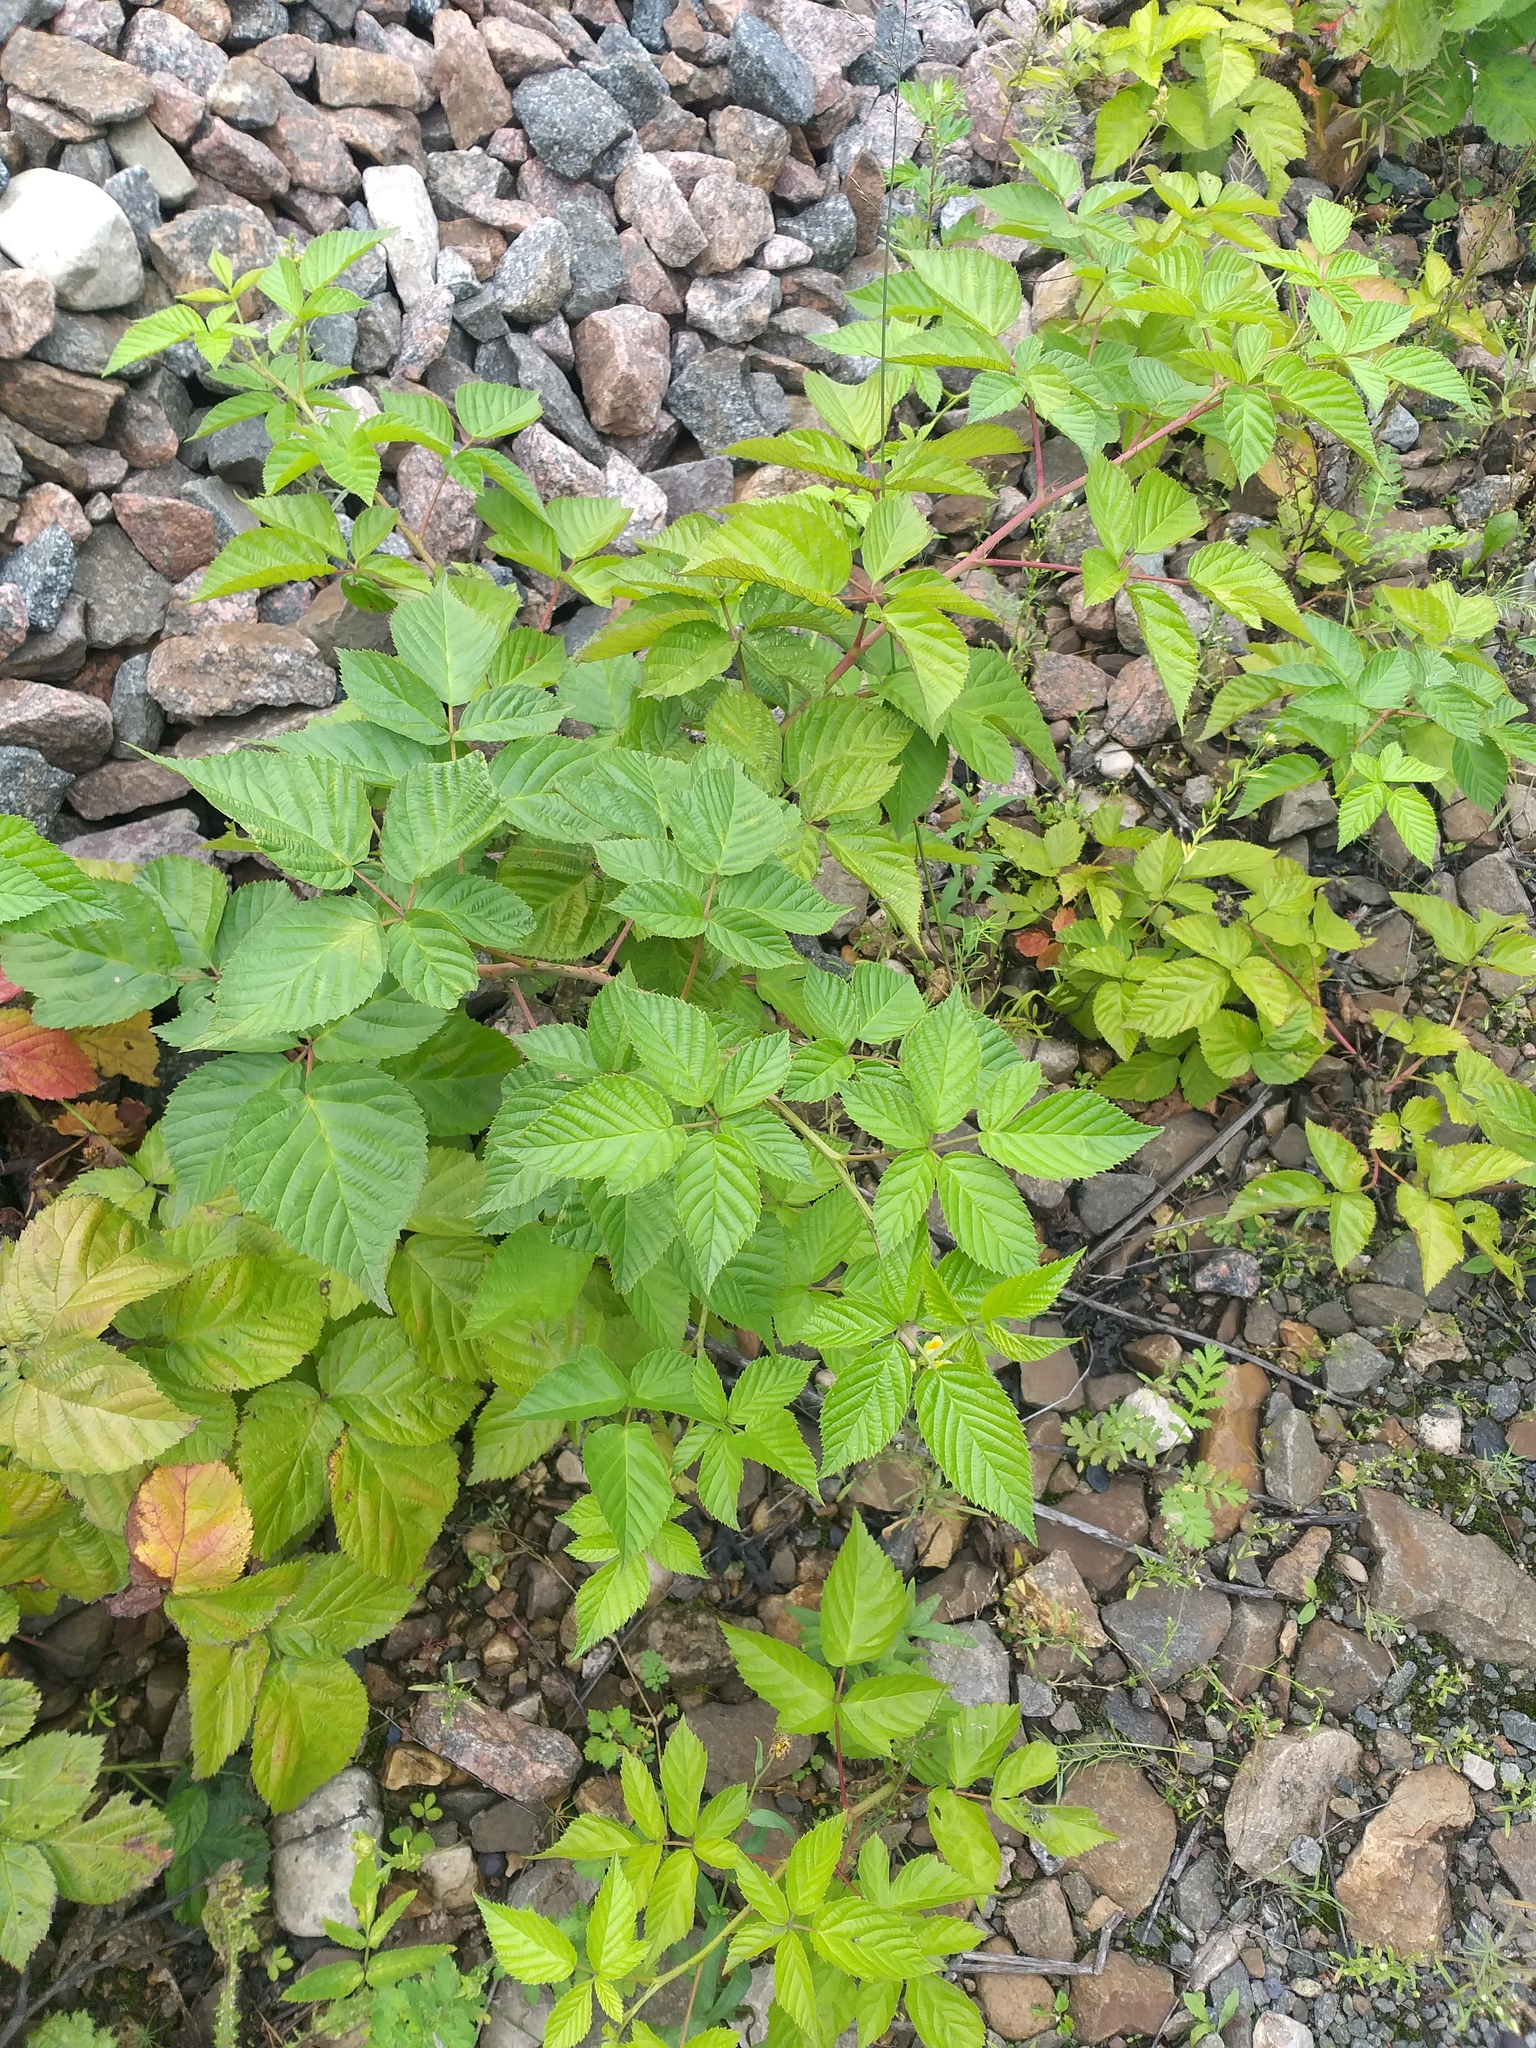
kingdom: Plantae
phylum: Tracheophyta
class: Magnoliopsida
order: Rosales
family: Rosaceae
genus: Rubus
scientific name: Rubus polonicus
